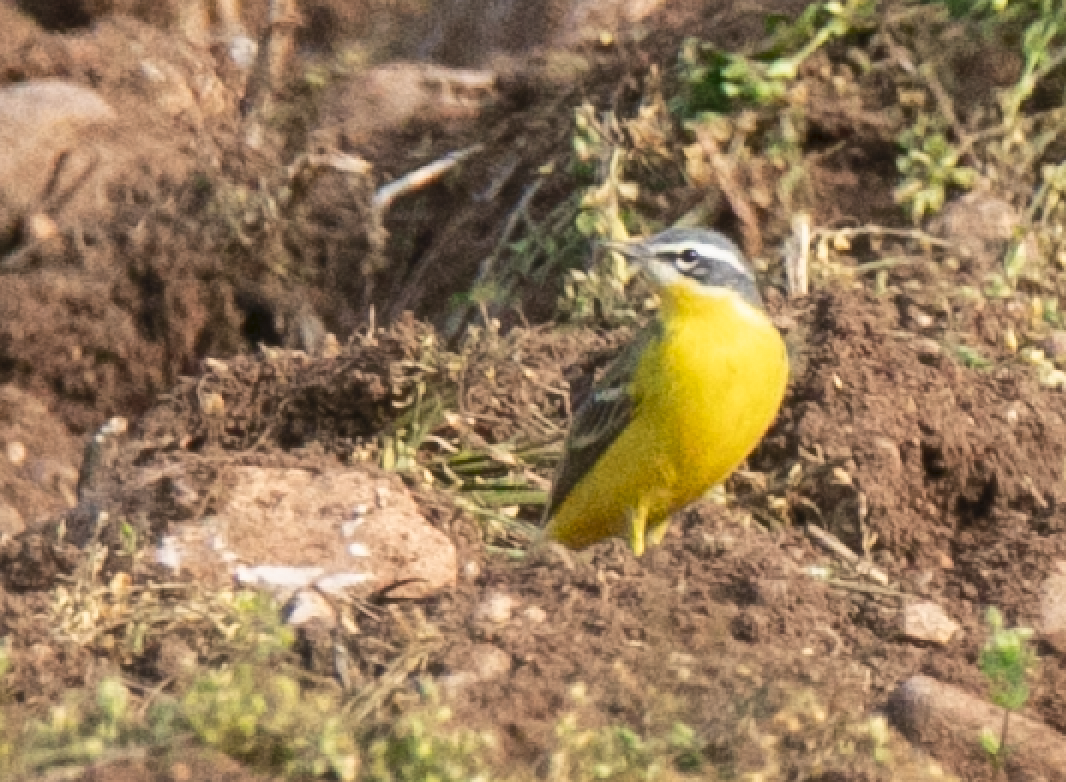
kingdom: Animalia
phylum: Chordata
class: Aves
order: Passeriformes
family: Motacillidae
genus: Motacilla
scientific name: Motacilla flava
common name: Western yellow wagtail
